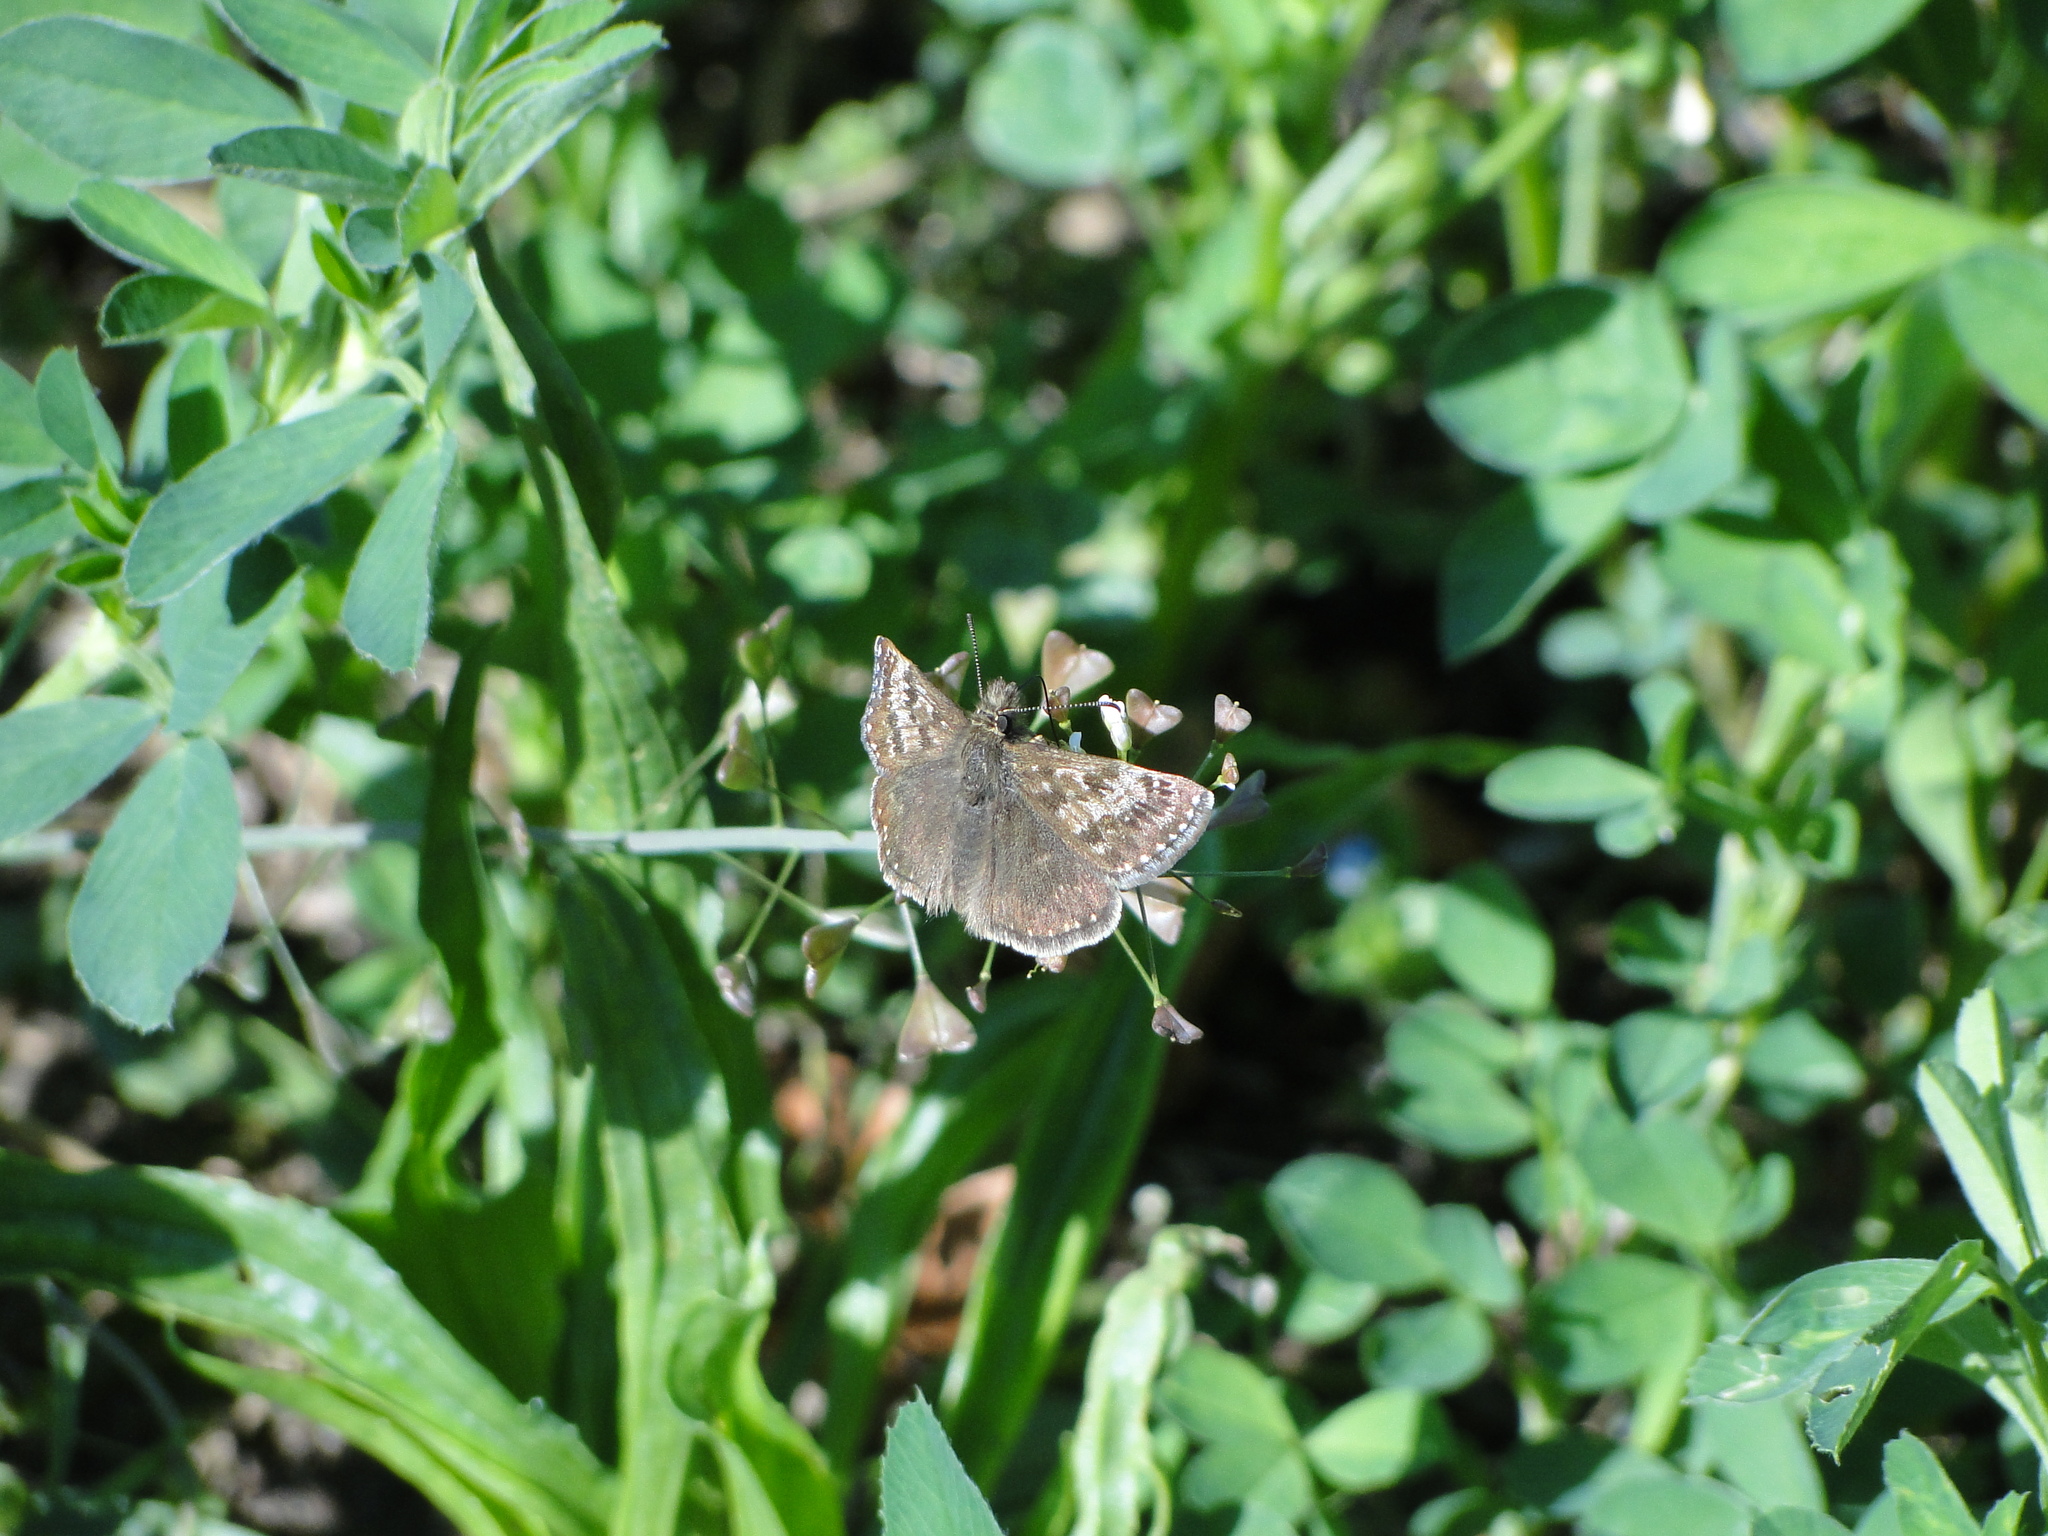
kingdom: Animalia
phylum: Arthropoda
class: Insecta
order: Lepidoptera
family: Hesperiidae
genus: Erynnis
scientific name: Erynnis tages
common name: Dingy skipper
